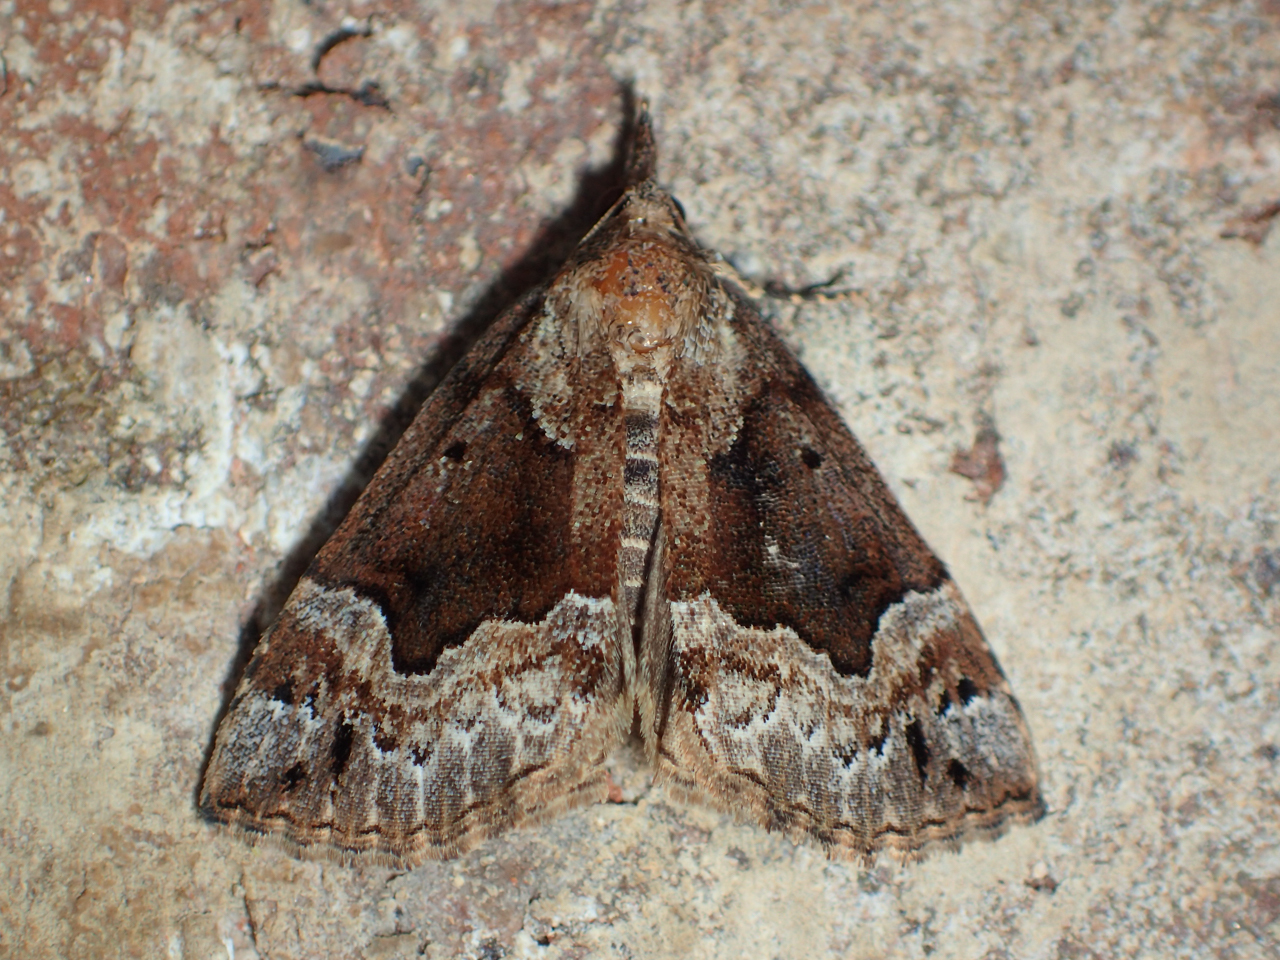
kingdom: Animalia
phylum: Arthropoda
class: Insecta
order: Lepidoptera
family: Erebidae
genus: Hypena
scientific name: Hypena palparia
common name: Mottled bomolocha moth
